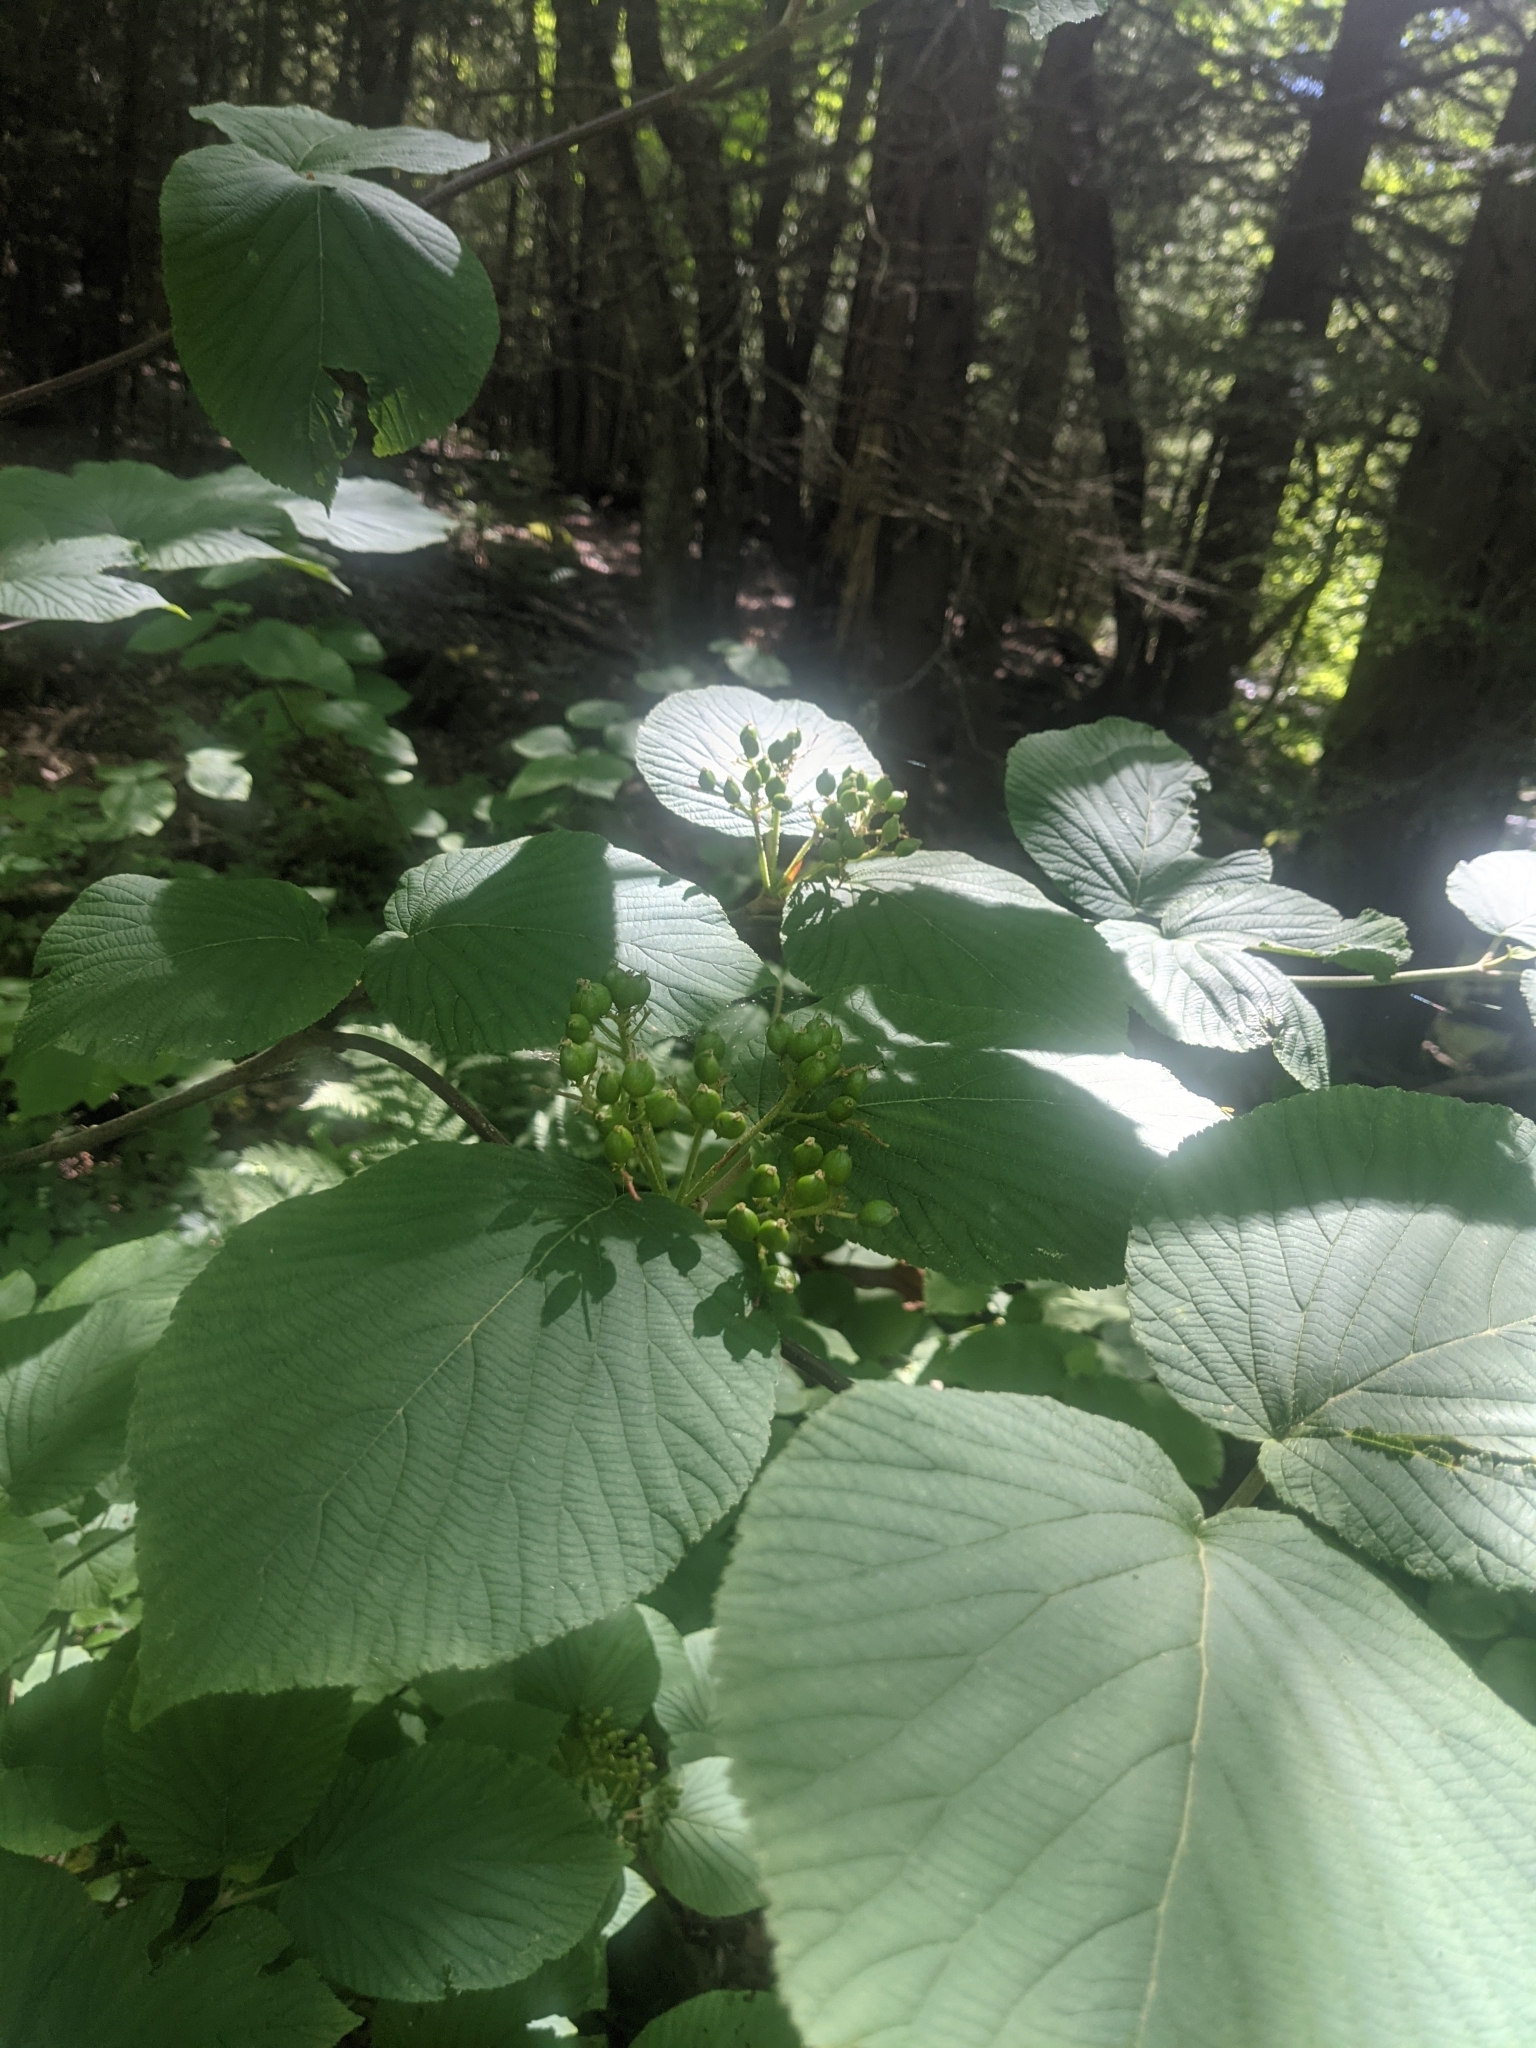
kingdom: Plantae
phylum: Tracheophyta
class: Magnoliopsida
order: Dipsacales
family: Viburnaceae
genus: Viburnum
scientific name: Viburnum lantanoides
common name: Hobblebush
